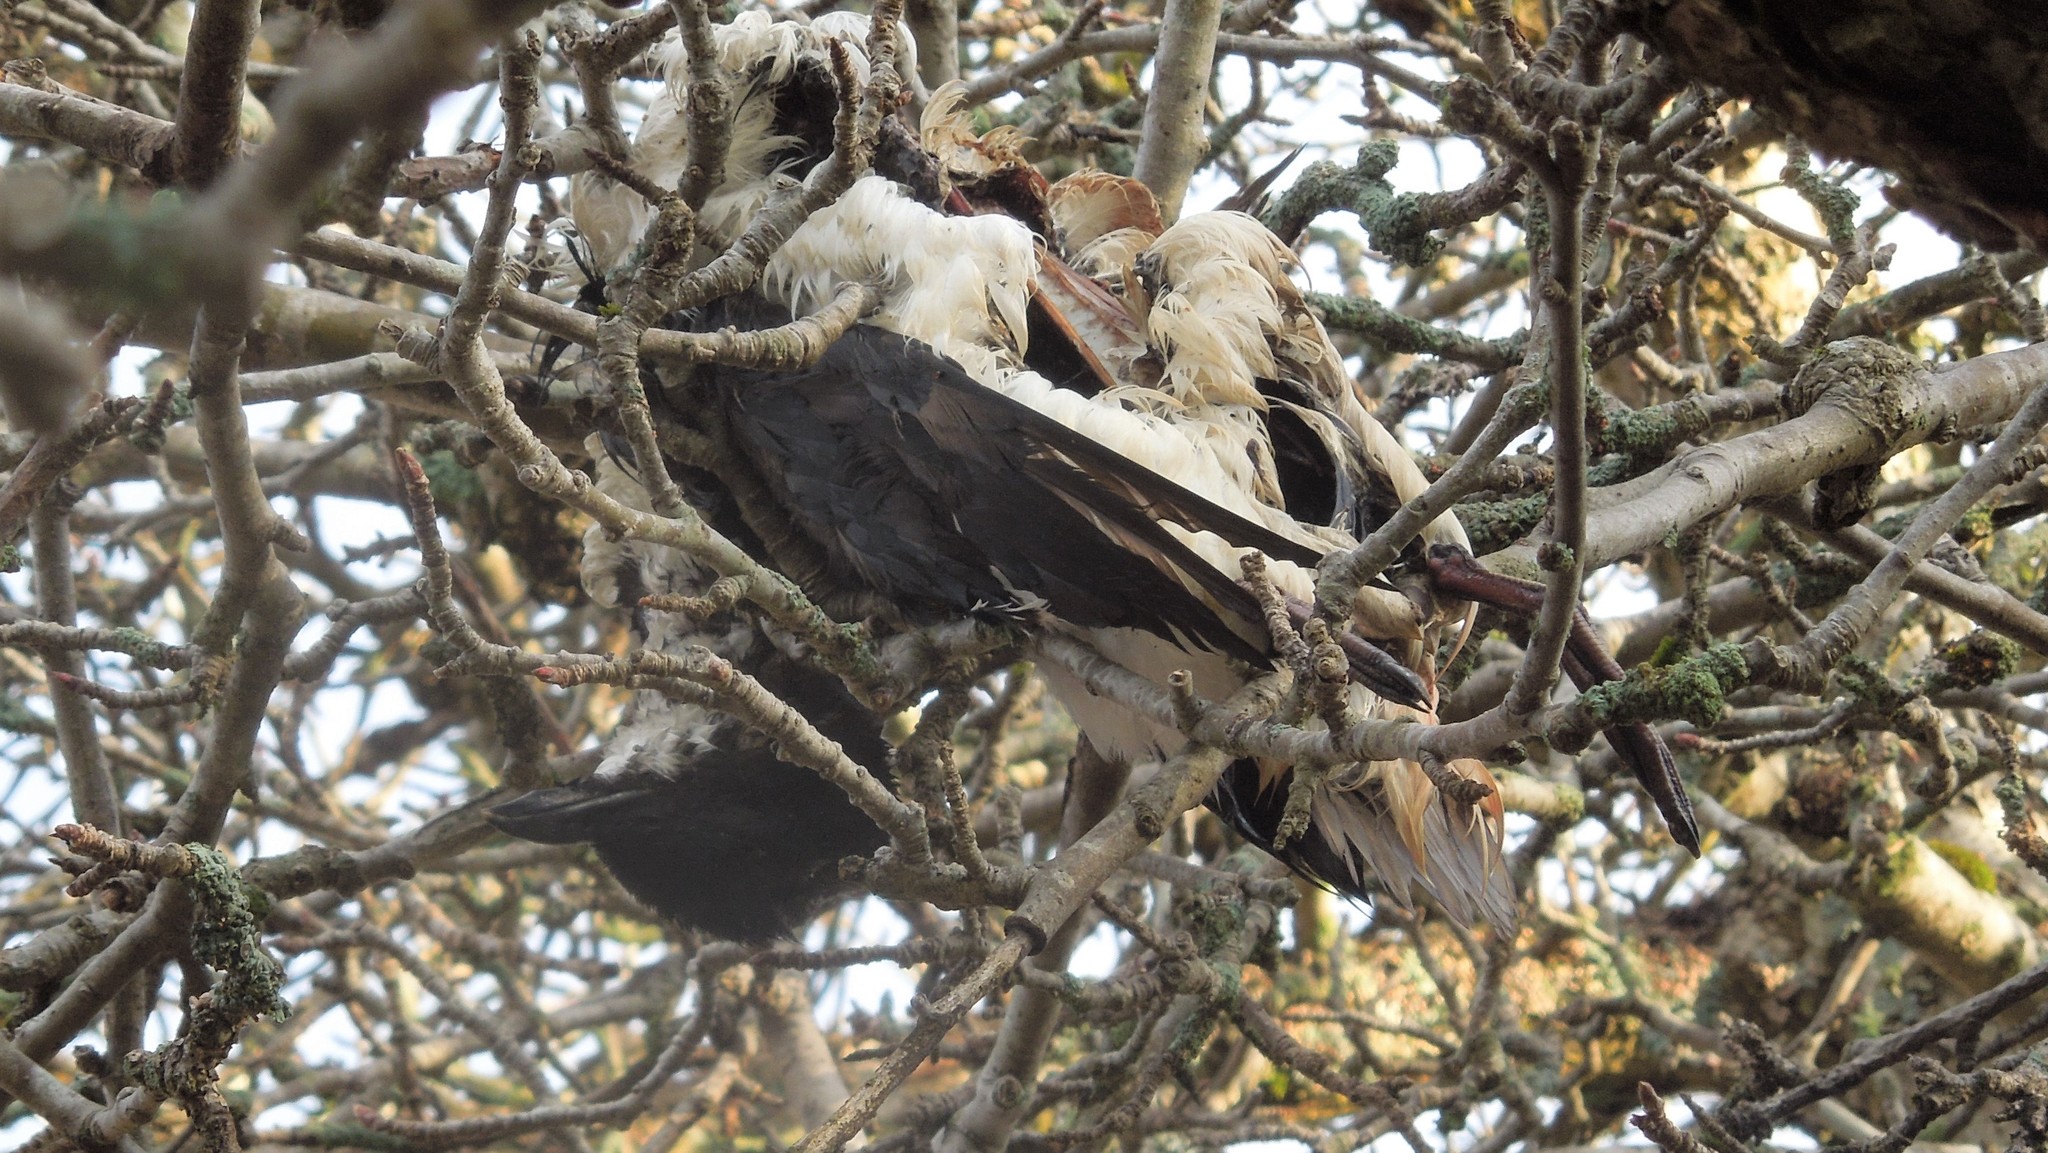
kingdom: Animalia
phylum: Chordata
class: Aves
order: Charadriiformes
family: Alcidae
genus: Uria
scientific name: Uria
